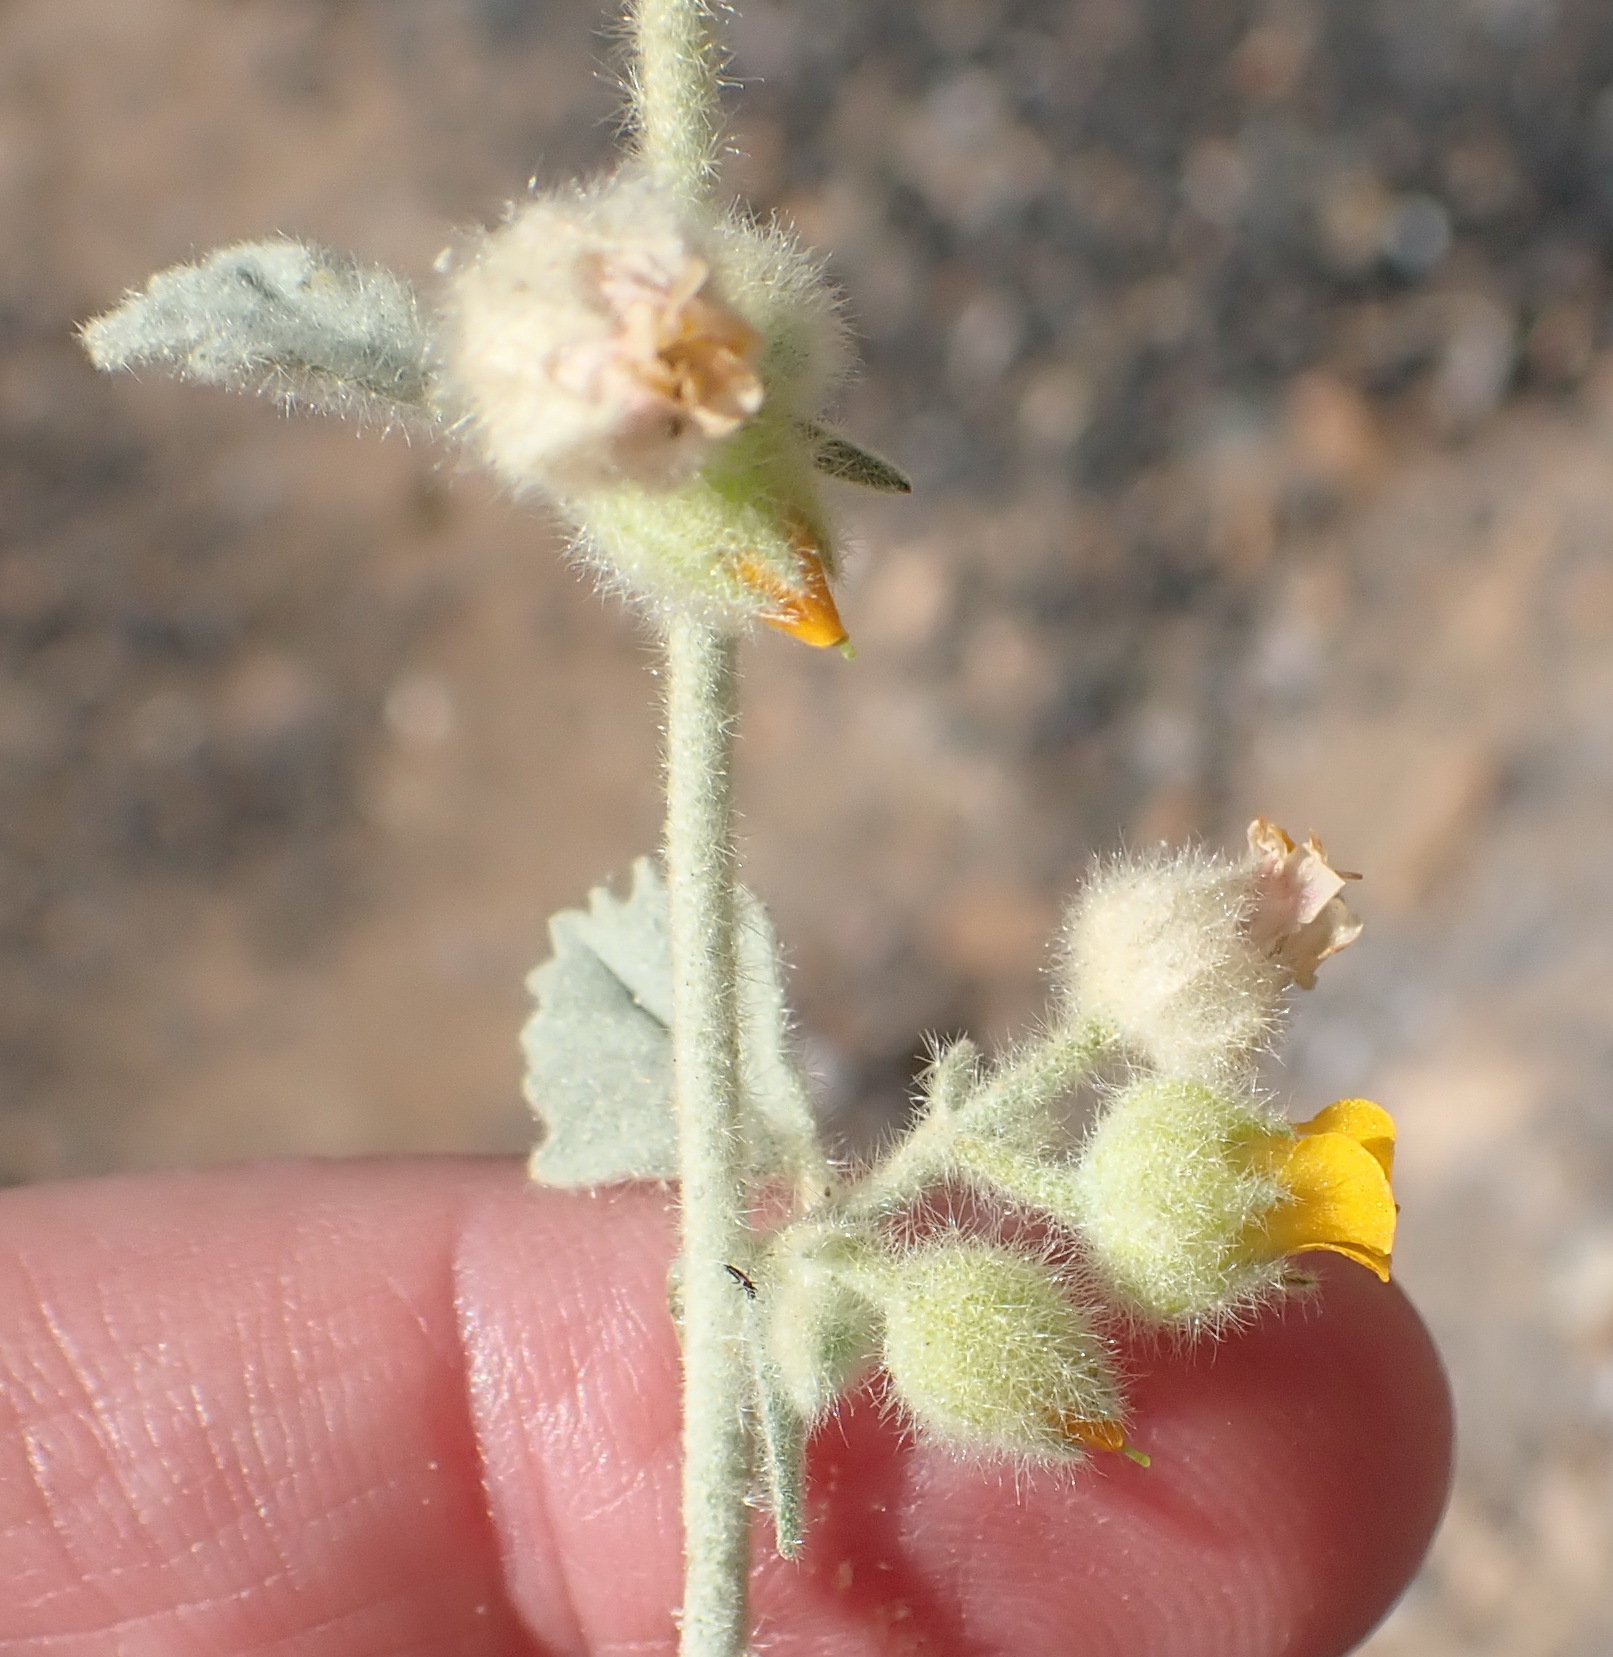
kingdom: Plantae
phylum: Tracheophyta
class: Magnoliopsida
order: Malvales
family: Malvaceae
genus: Hermannia
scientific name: Hermannia vestita
